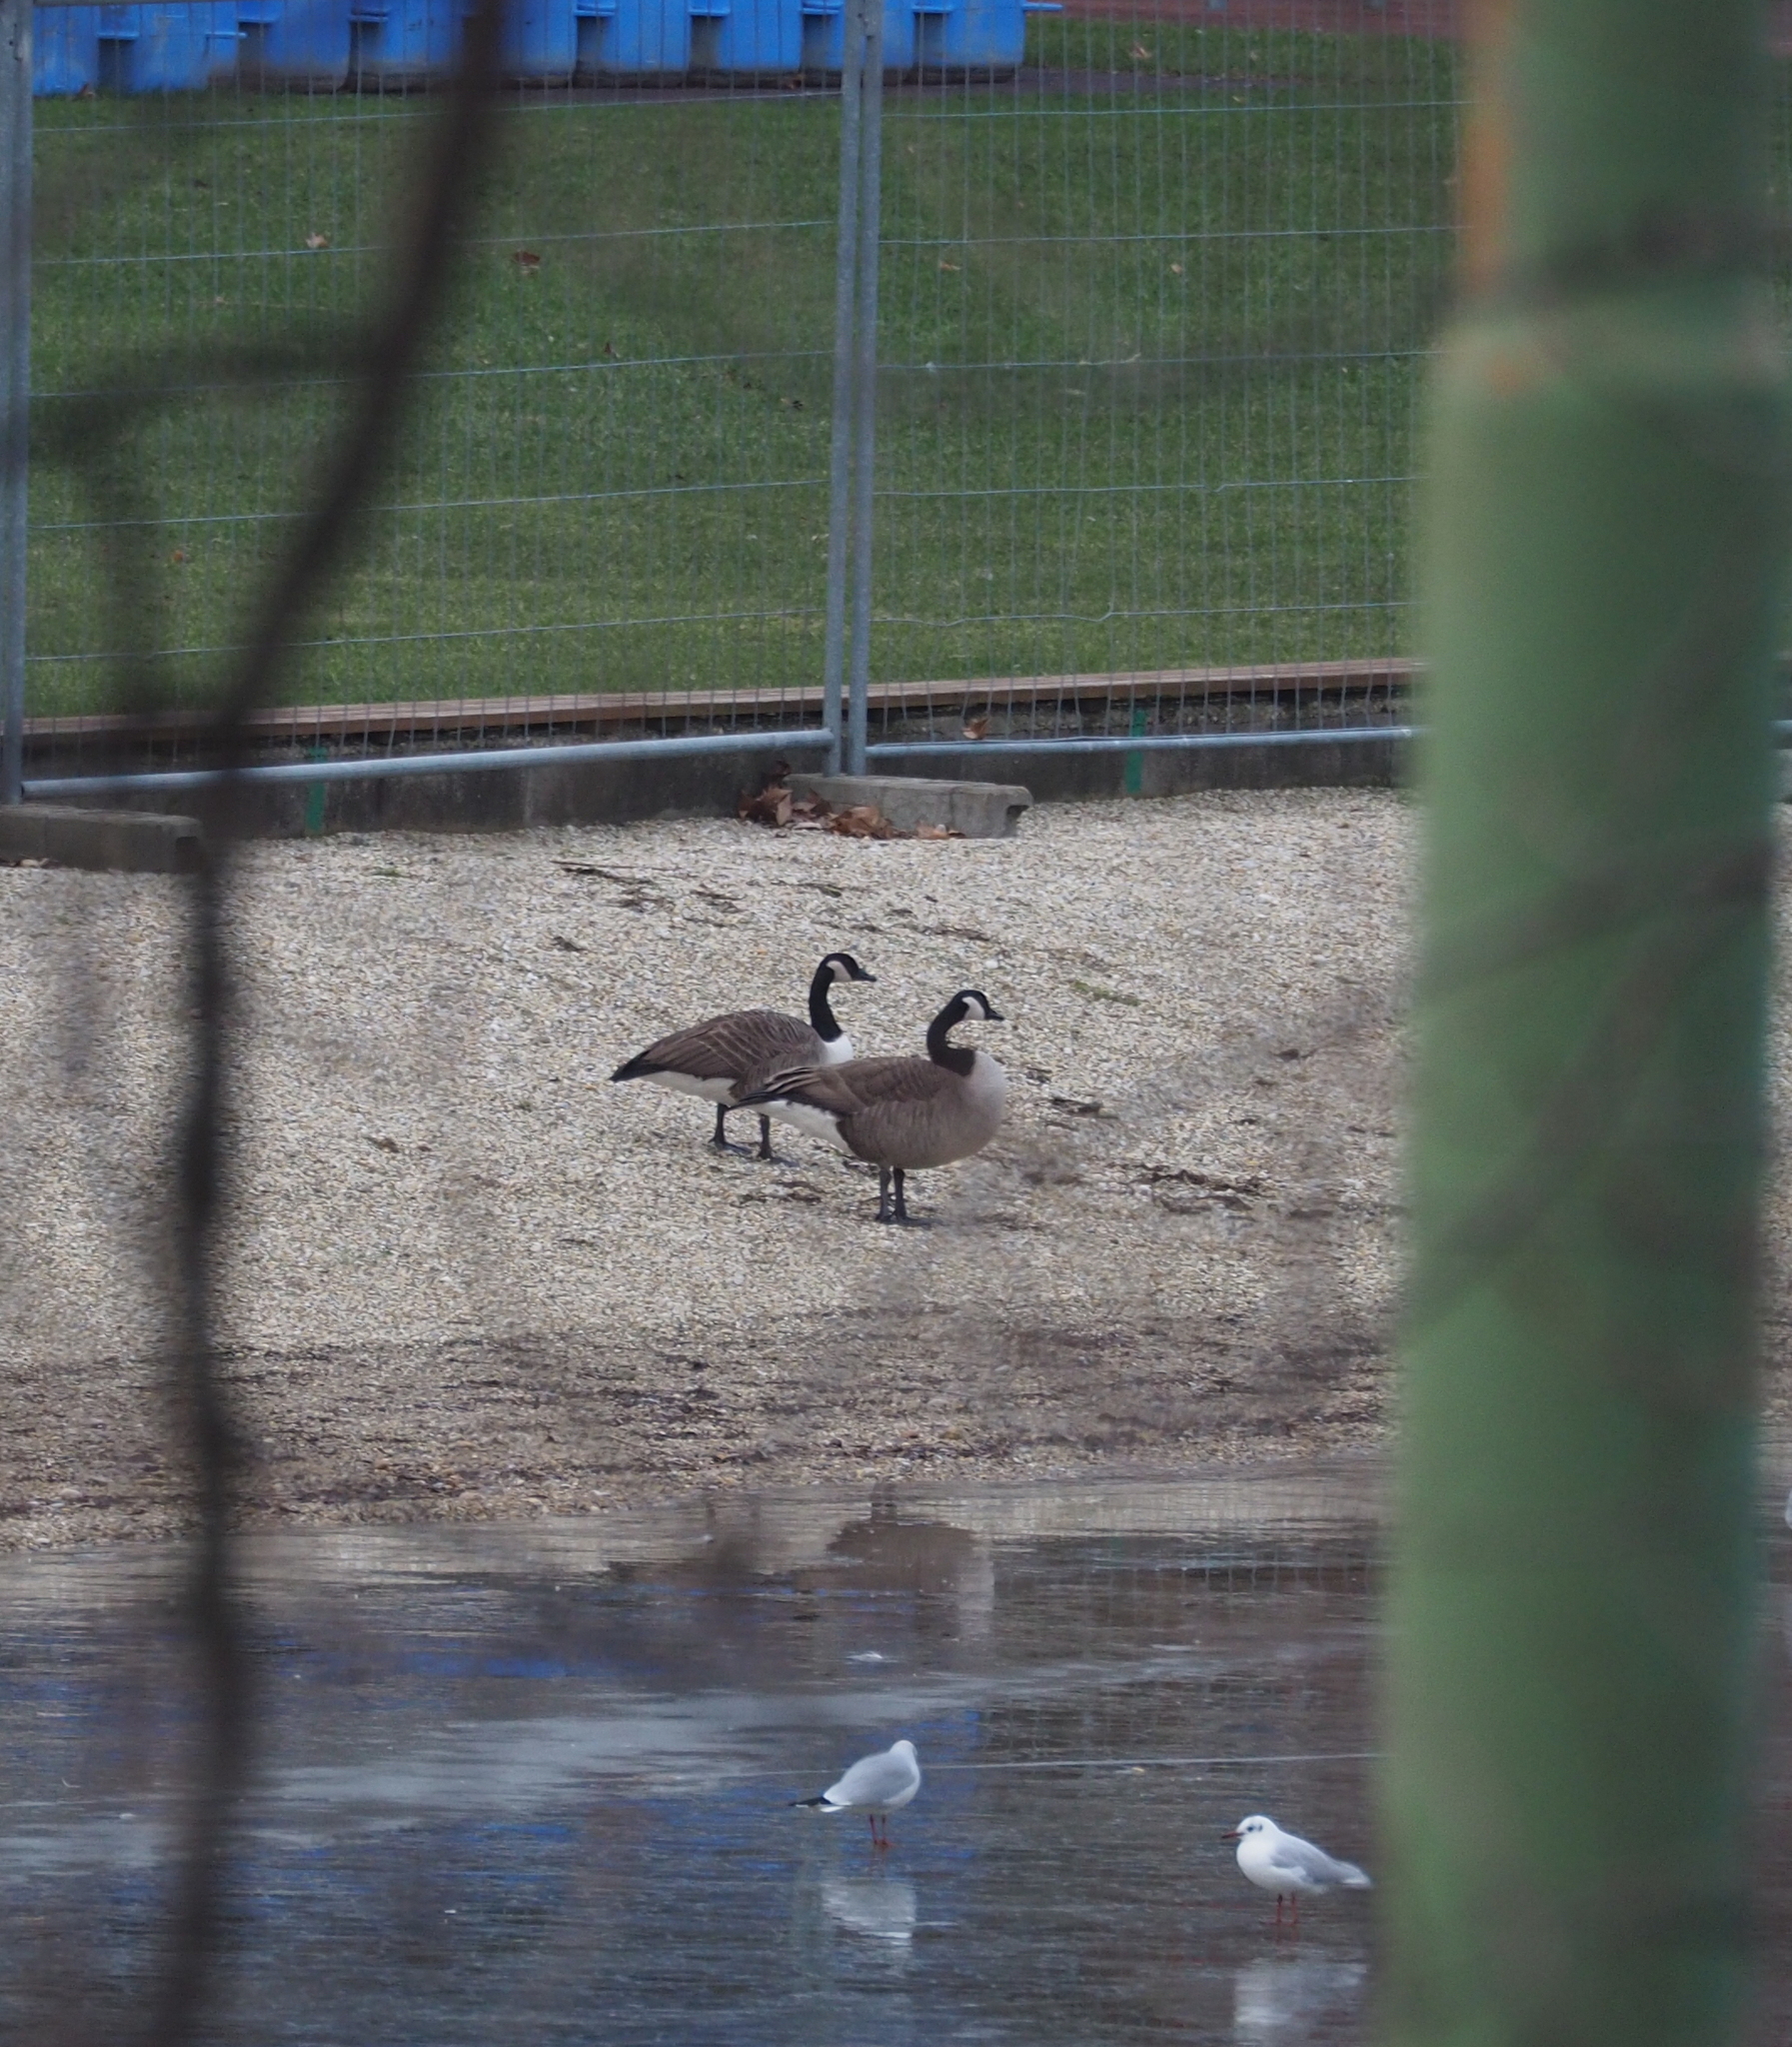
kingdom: Animalia
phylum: Chordata
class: Aves
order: Anseriformes
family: Anatidae
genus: Branta
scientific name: Branta canadensis
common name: Canada goose
